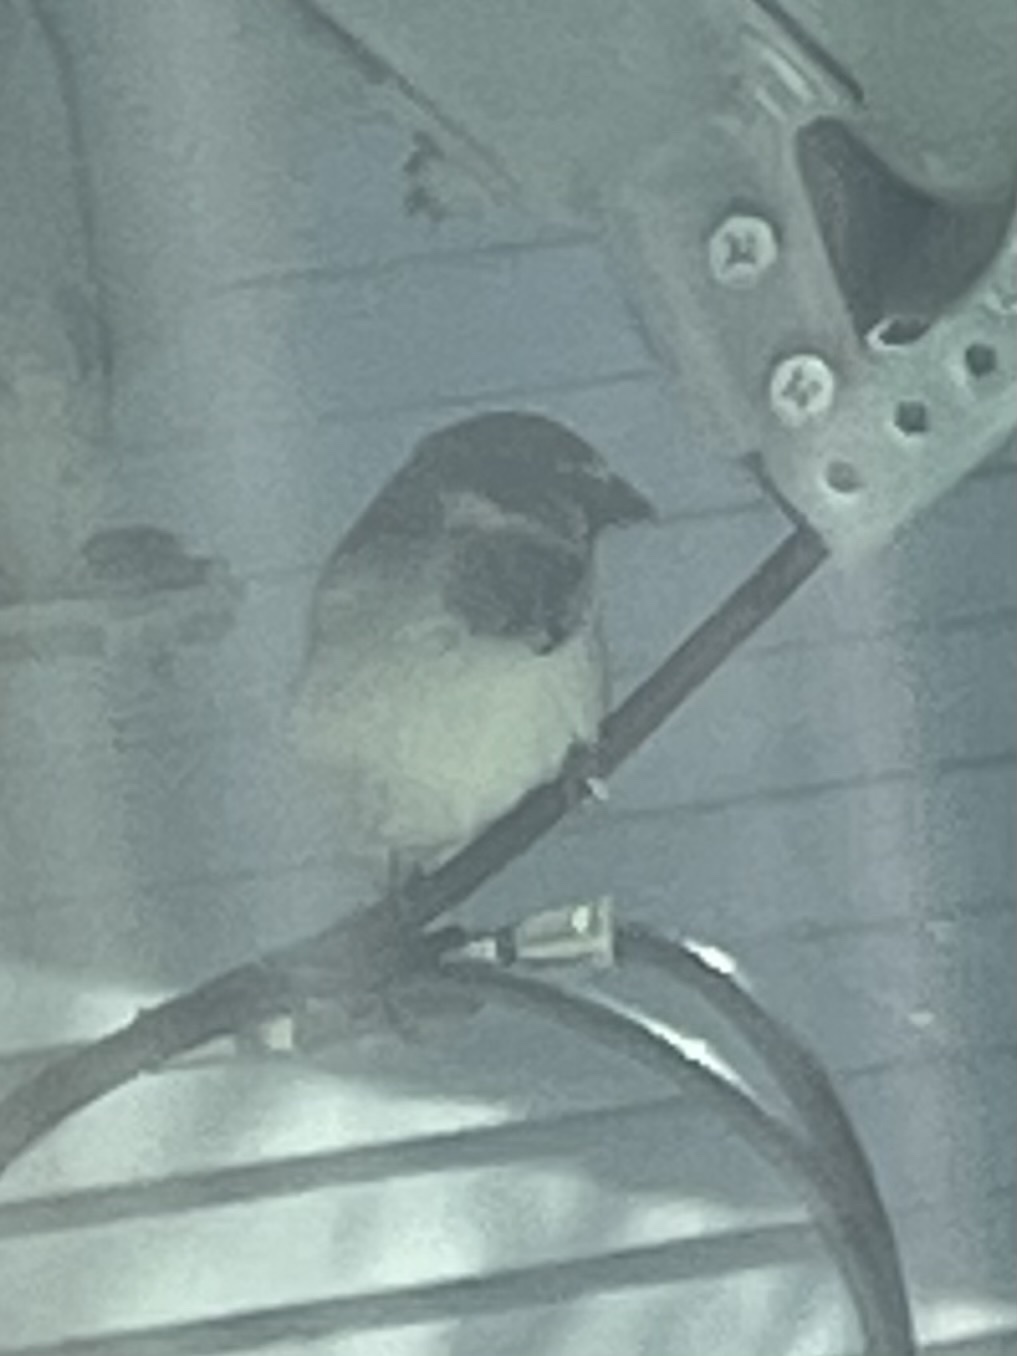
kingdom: Animalia
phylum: Chordata
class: Aves
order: Passeriformes
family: Passeridae
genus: Passer
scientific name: Passer domesticus
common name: House sparrow
